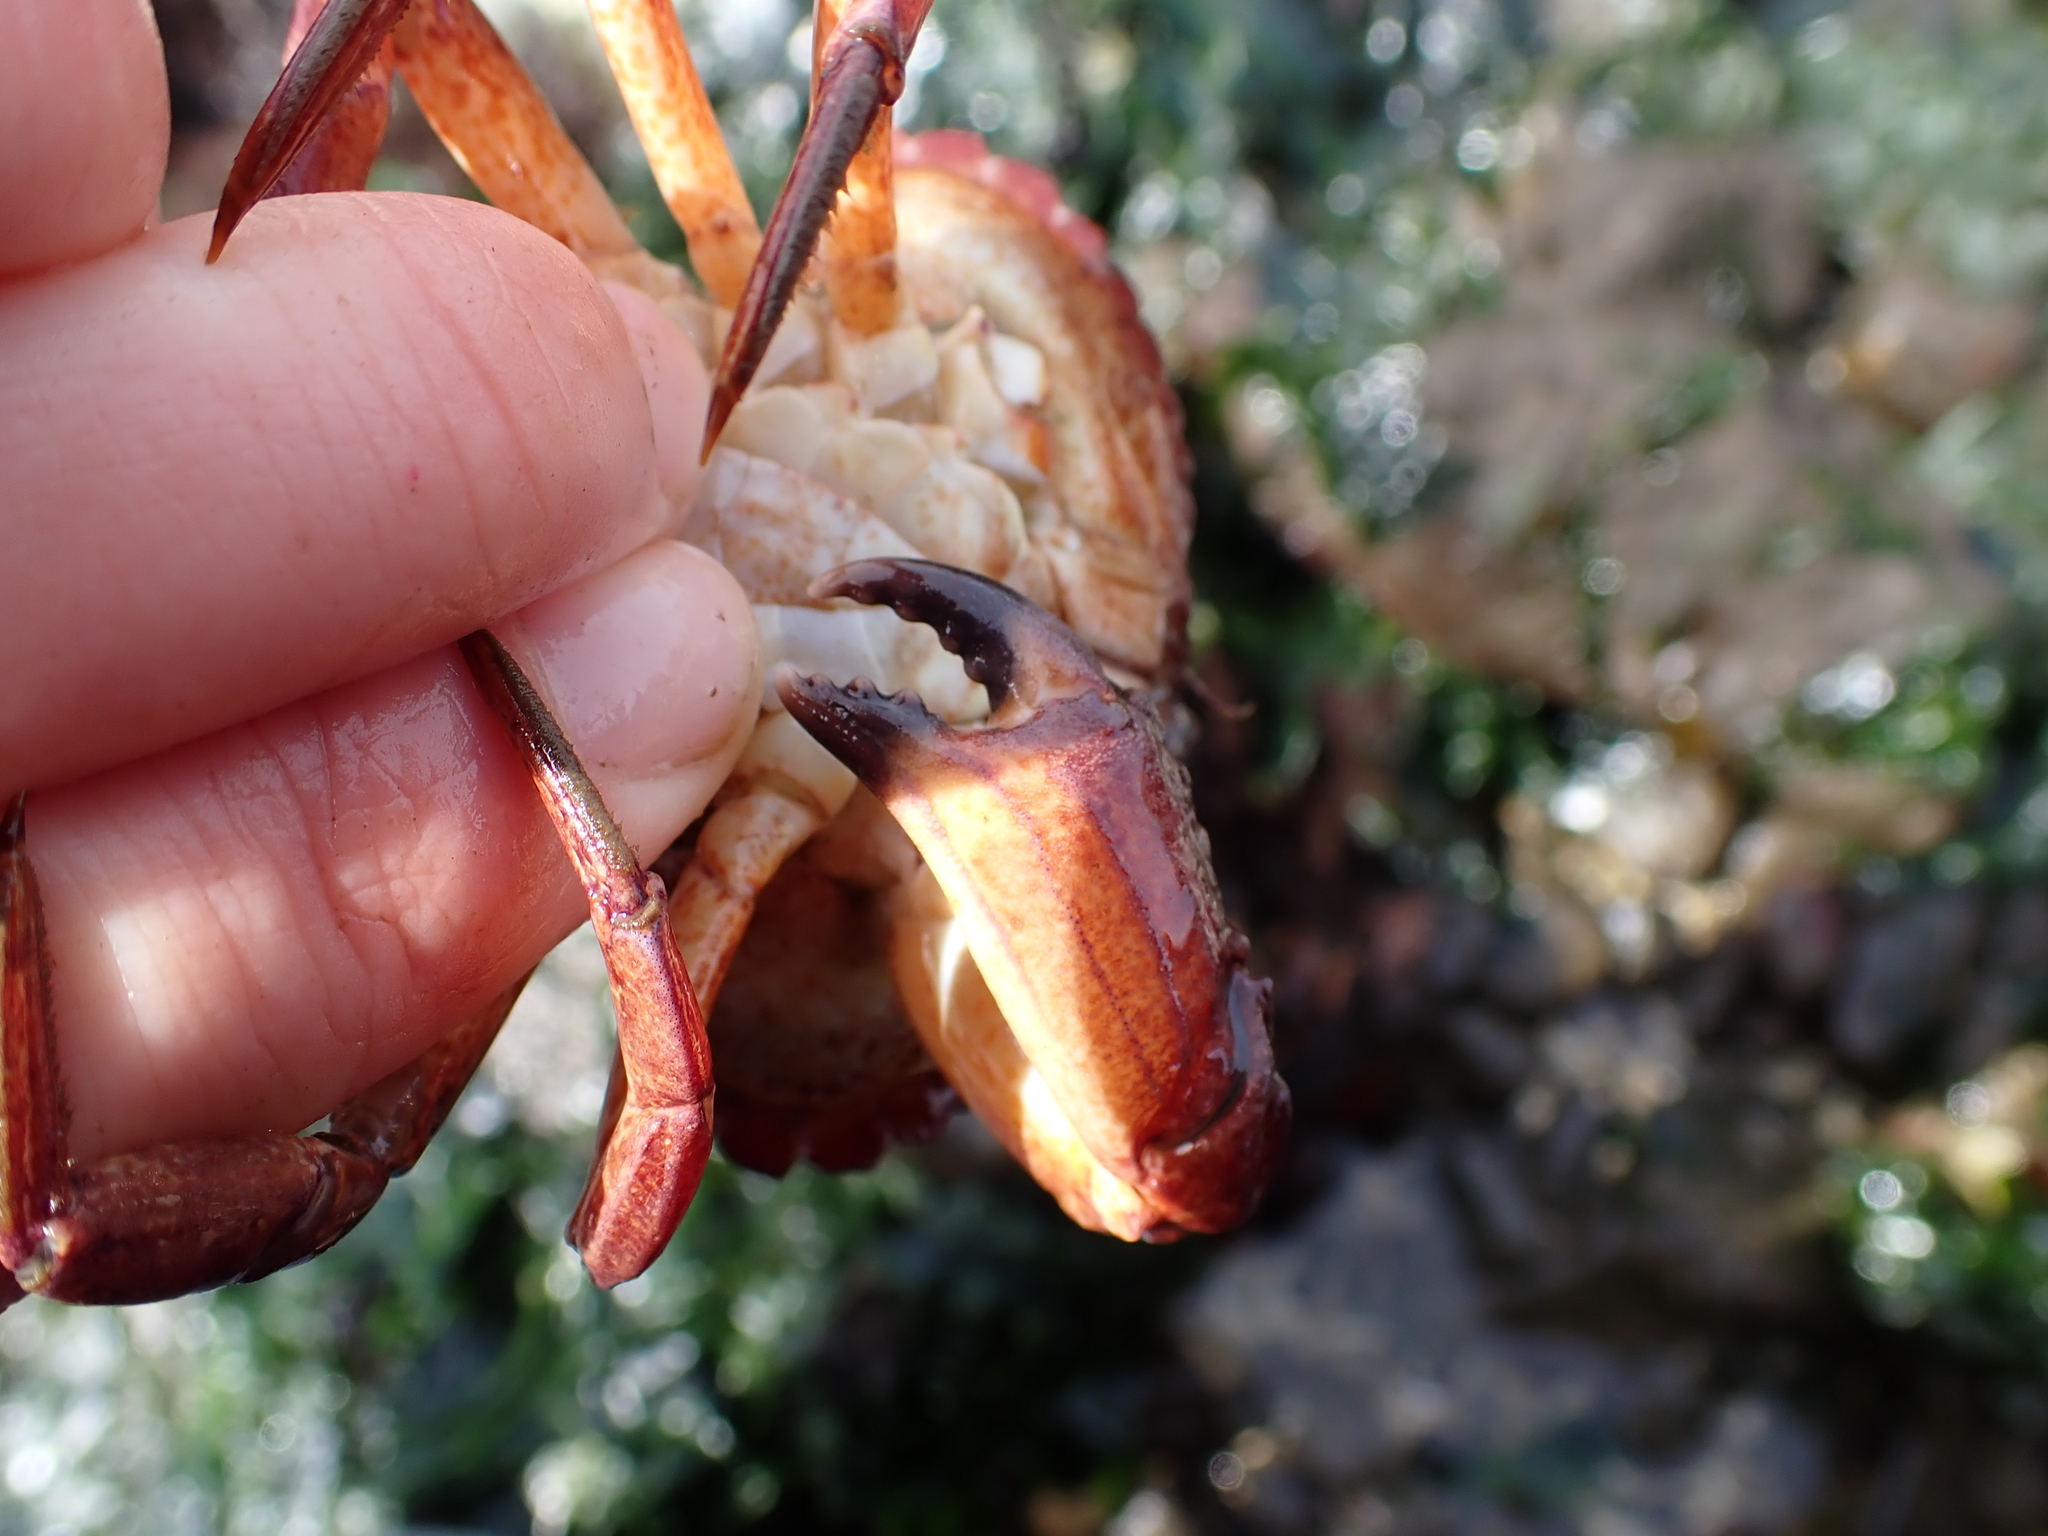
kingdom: Animalia
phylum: Arthropoda
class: Malacostraca
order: Decapoda
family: Cancridae
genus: Cancer
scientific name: Cancer productus
